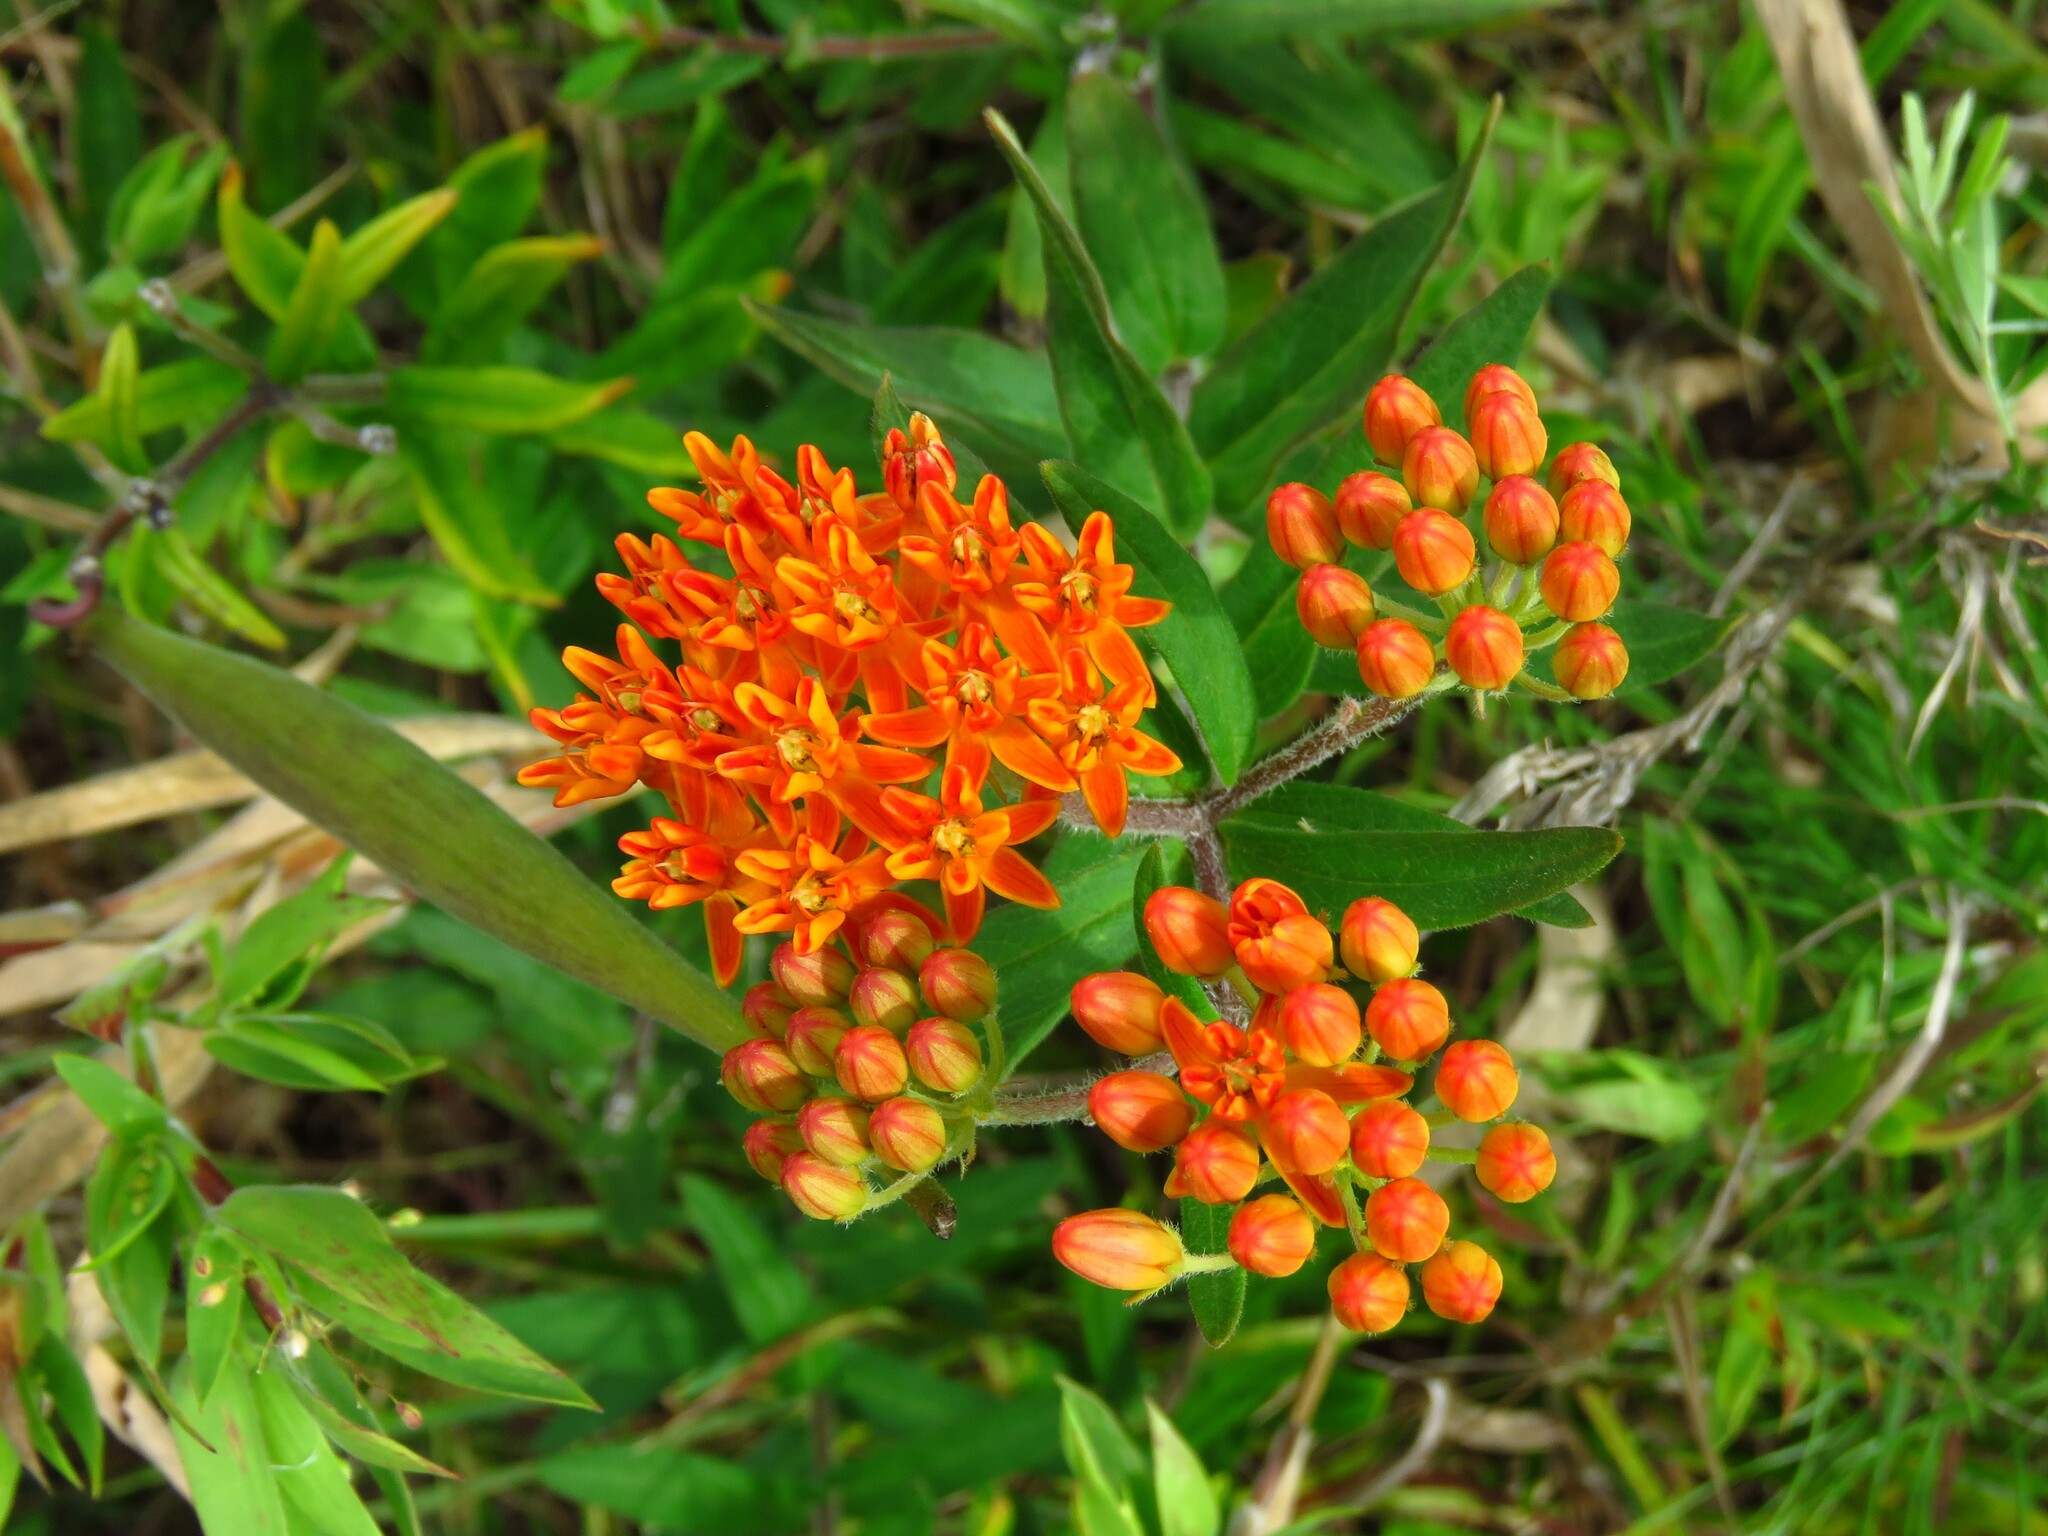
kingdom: Plantae
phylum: Tracheophyta
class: Magnoliopsida
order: Gentianales
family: Apocynaceae
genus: Asclepias
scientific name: Asclepias tuberosa
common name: Butterfly milkweed
